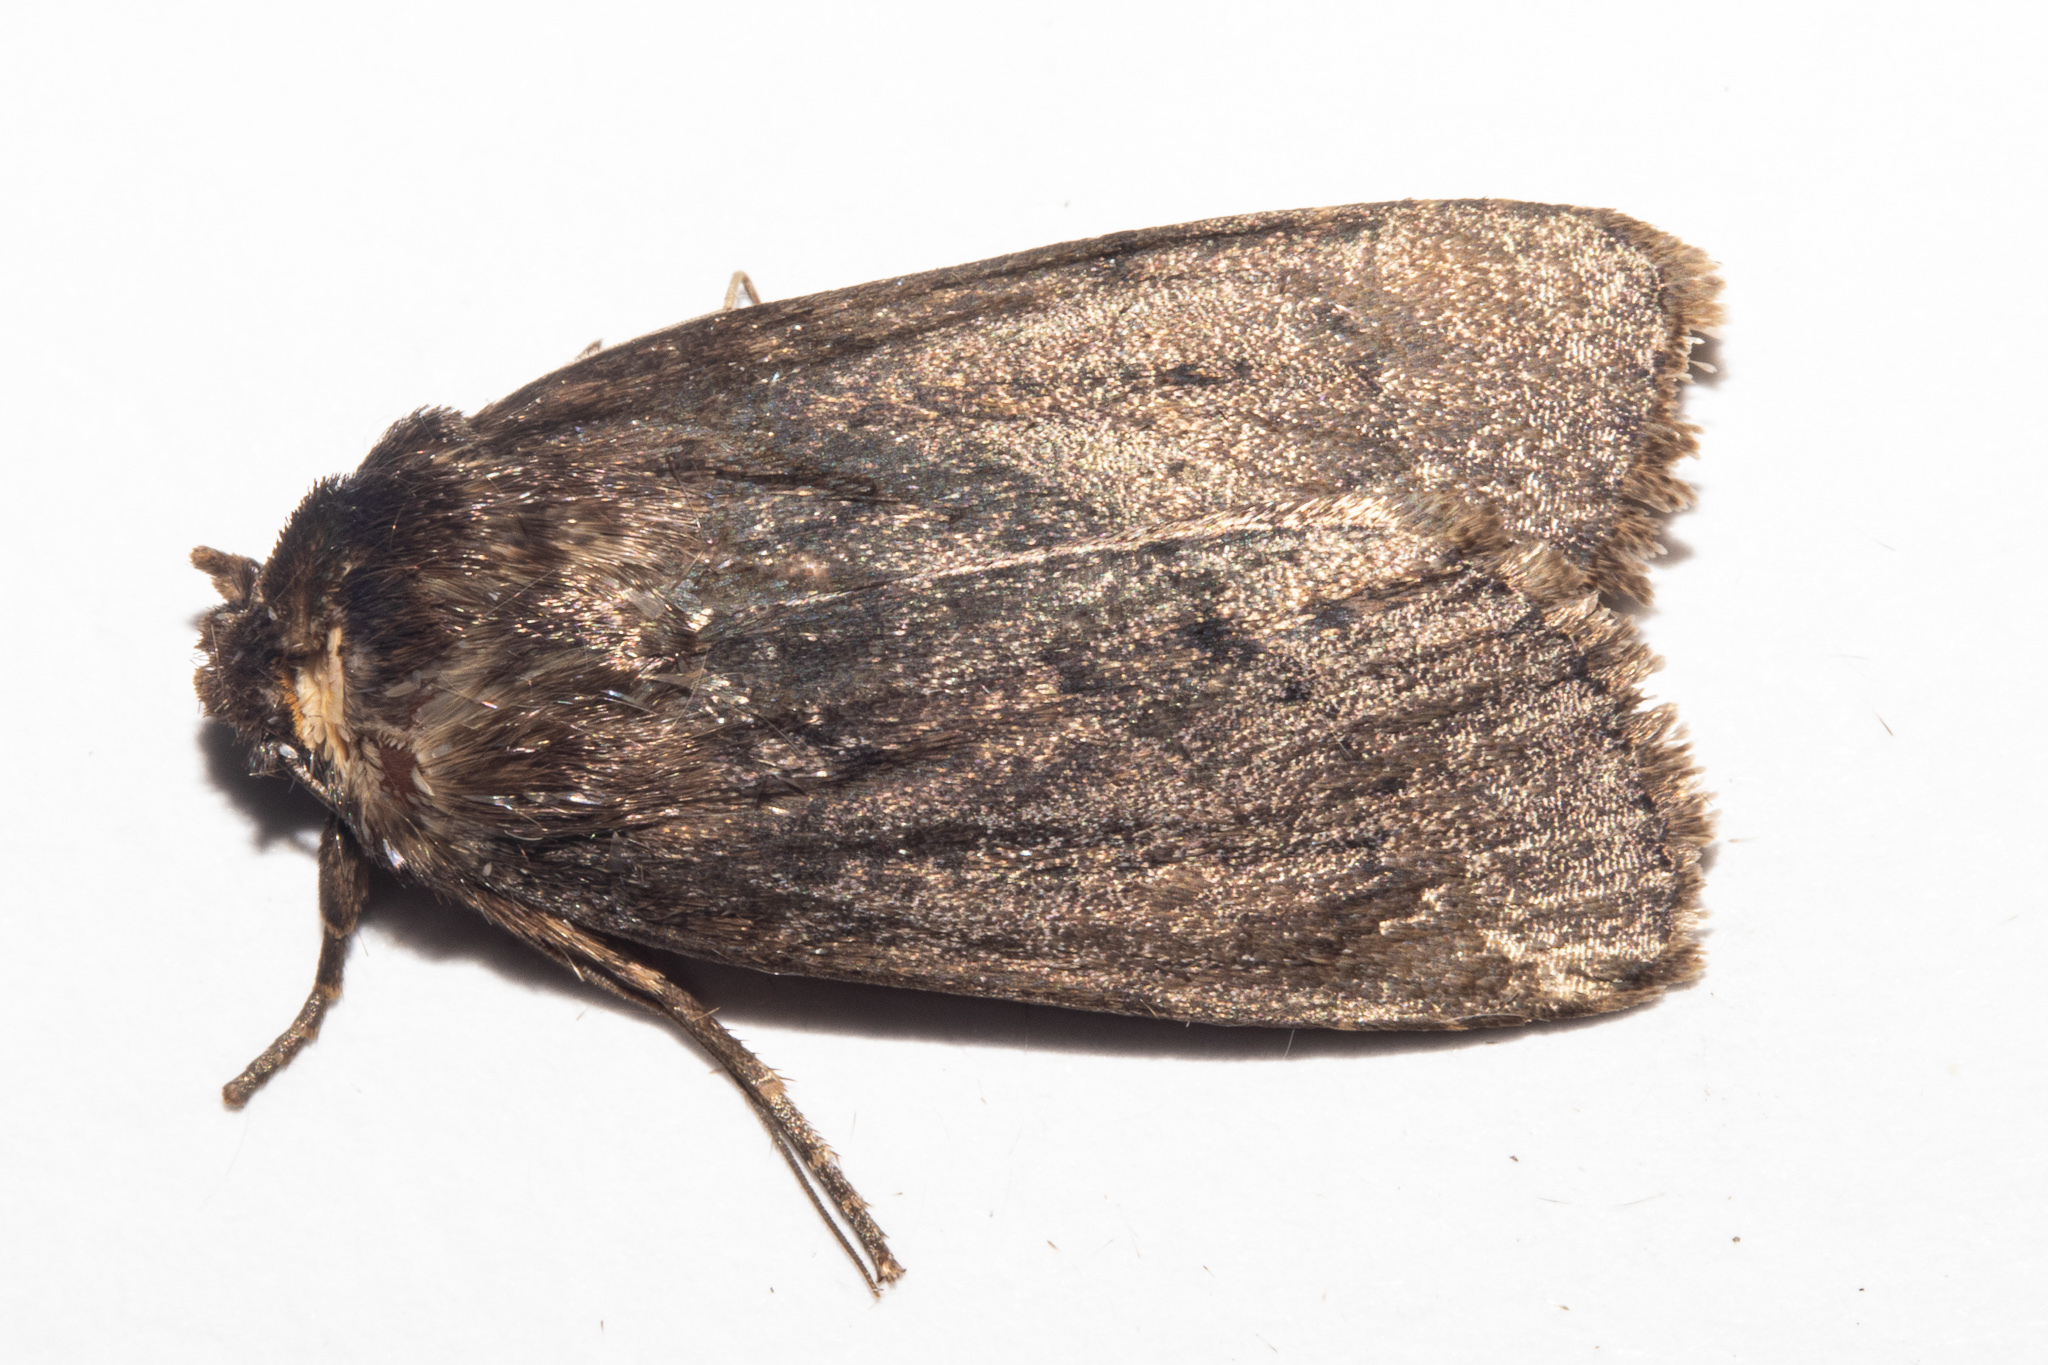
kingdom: Animalia
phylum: Arthropoda
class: Insecta
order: Lepidoptera
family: Noctuidae
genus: Bityla
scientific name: Bityla defigurata
